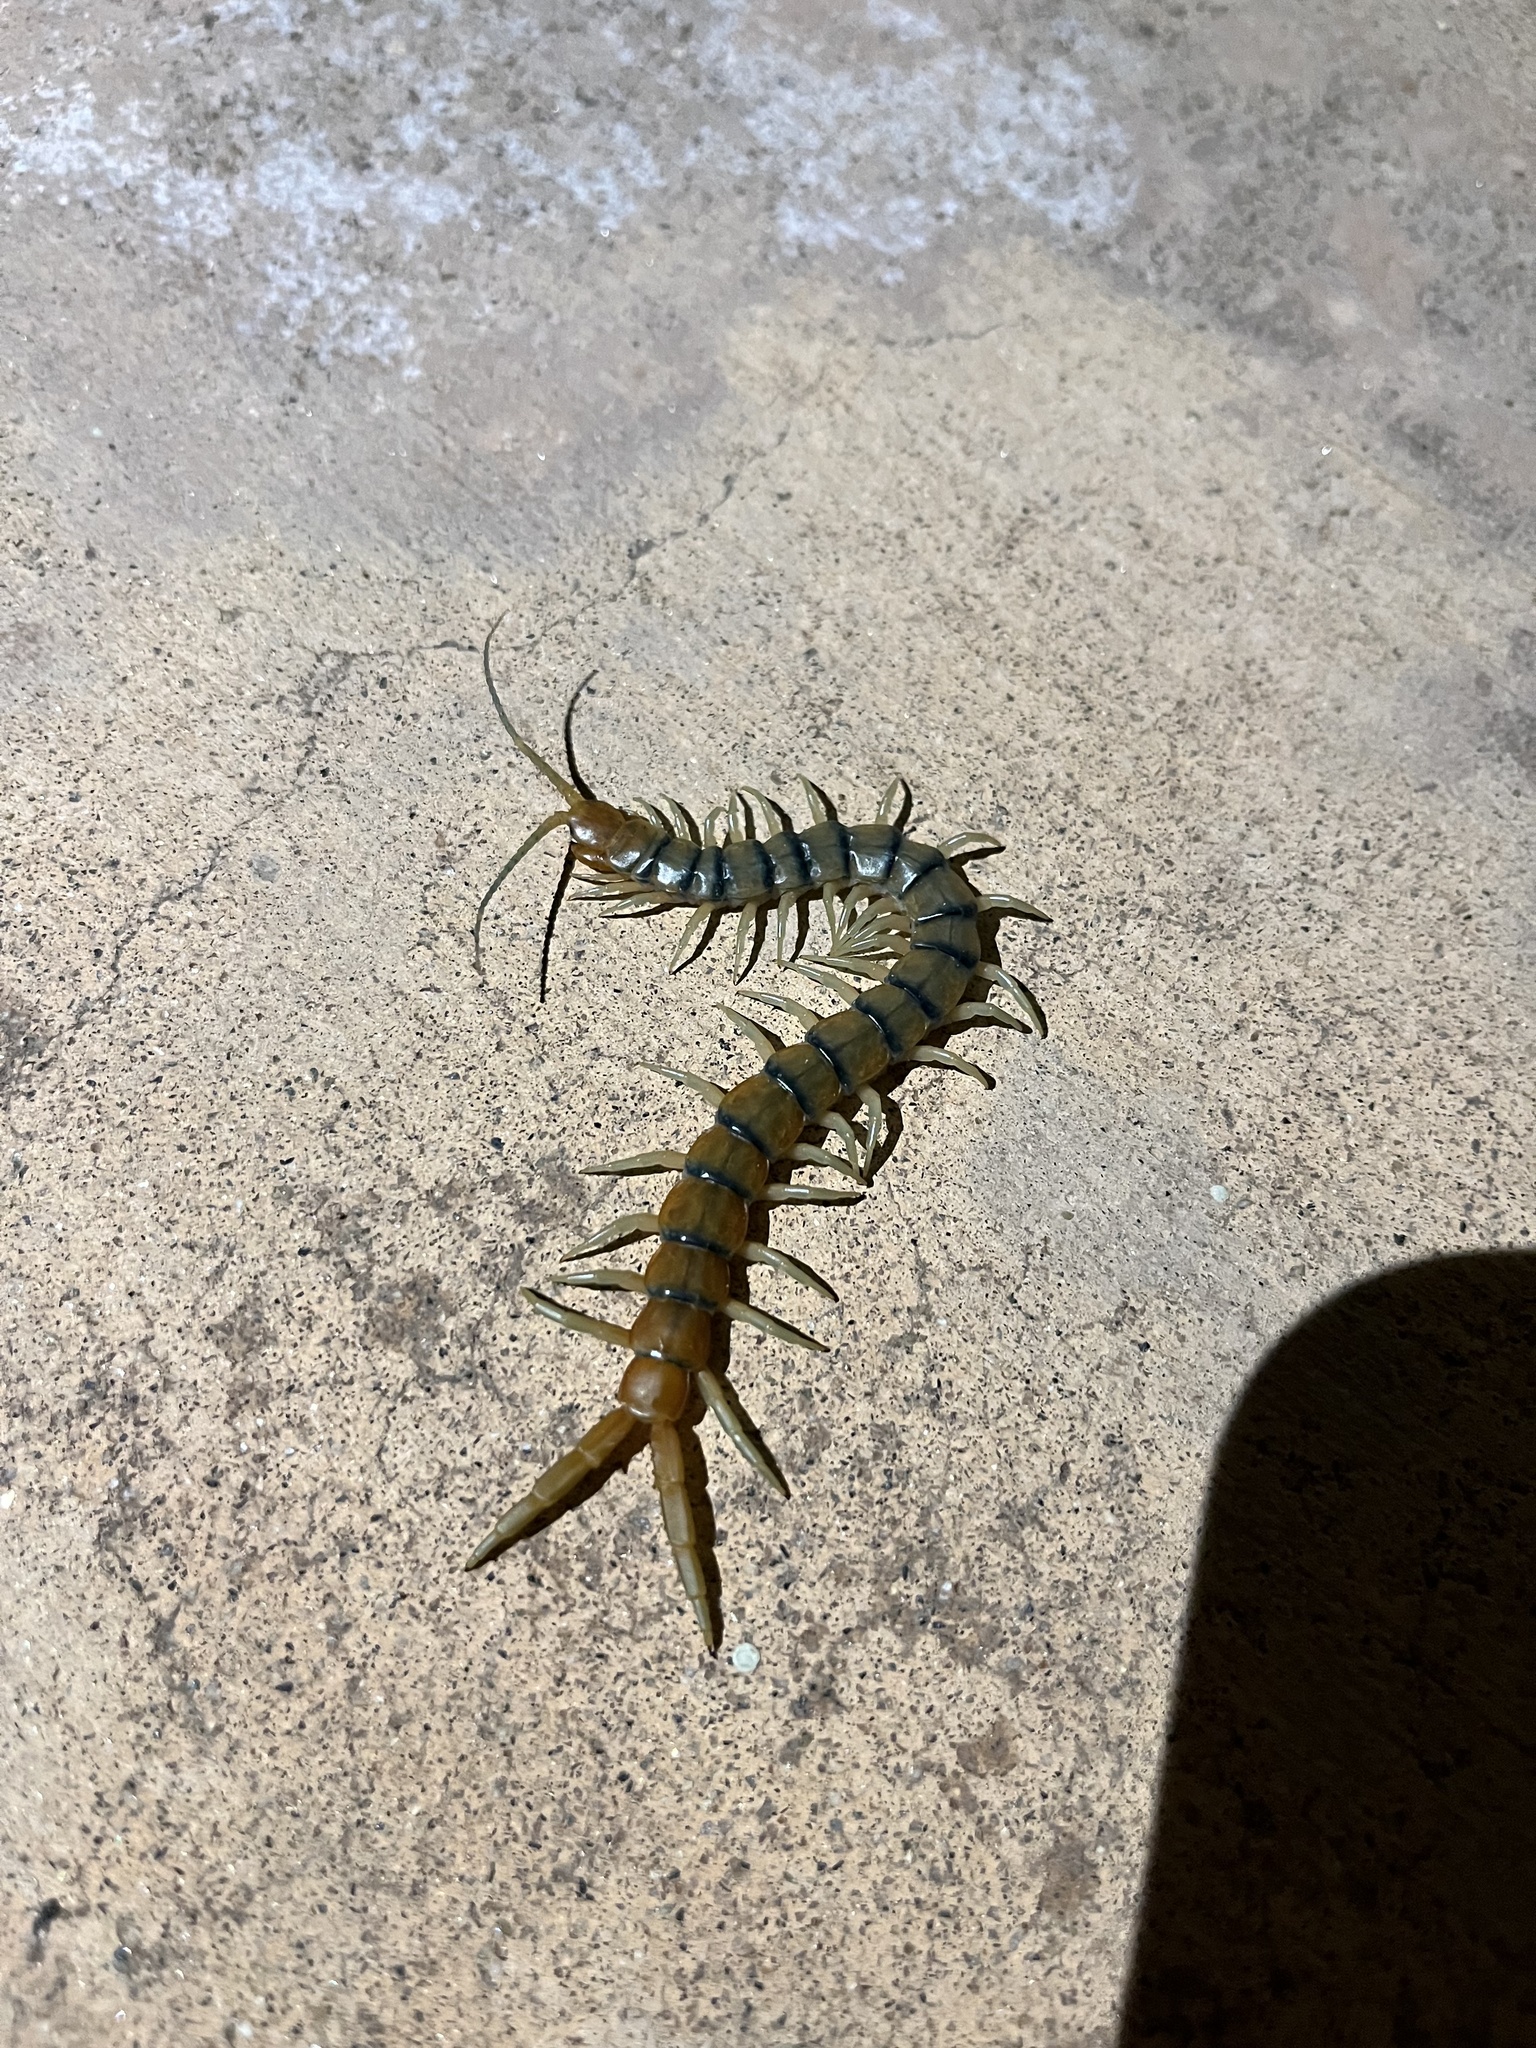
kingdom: Animalia
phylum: Arthropoda
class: Chilopoda
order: Scolopendromorpha
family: Scolopendridae
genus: Scolopendra
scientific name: Scolopendra polymorpha
